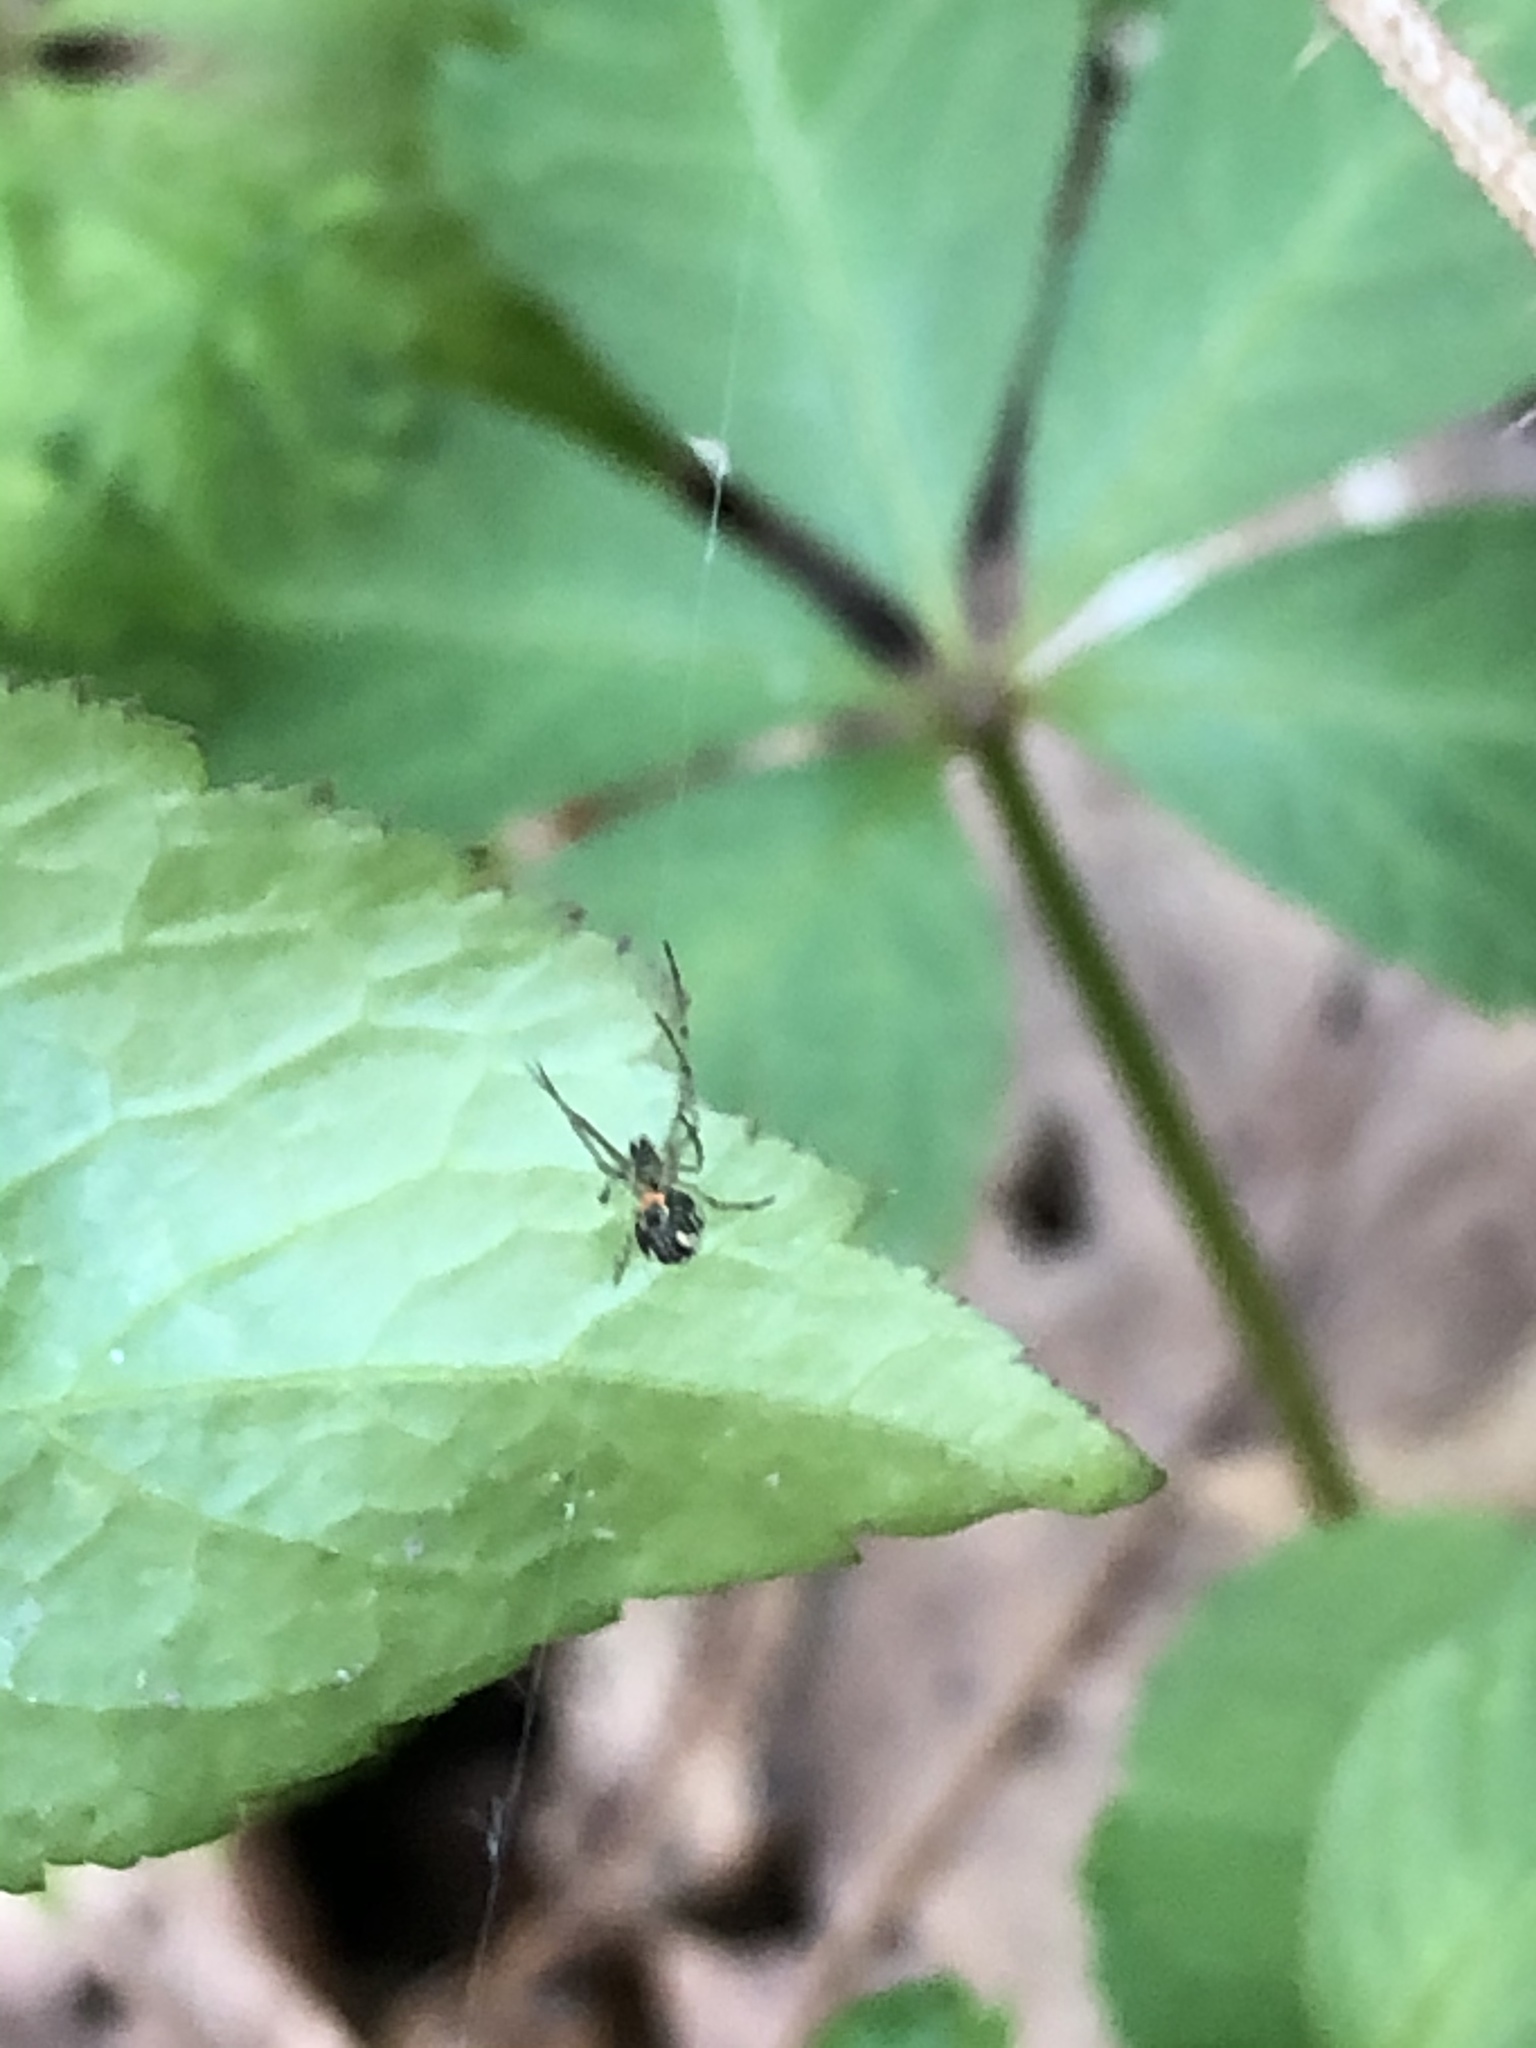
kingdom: Animalia
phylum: Arthropoda
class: Arachnida
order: Araneae
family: Tetragnathidae
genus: Leucauge
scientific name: Leucauge venusta
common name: Longjawed orb weavers
